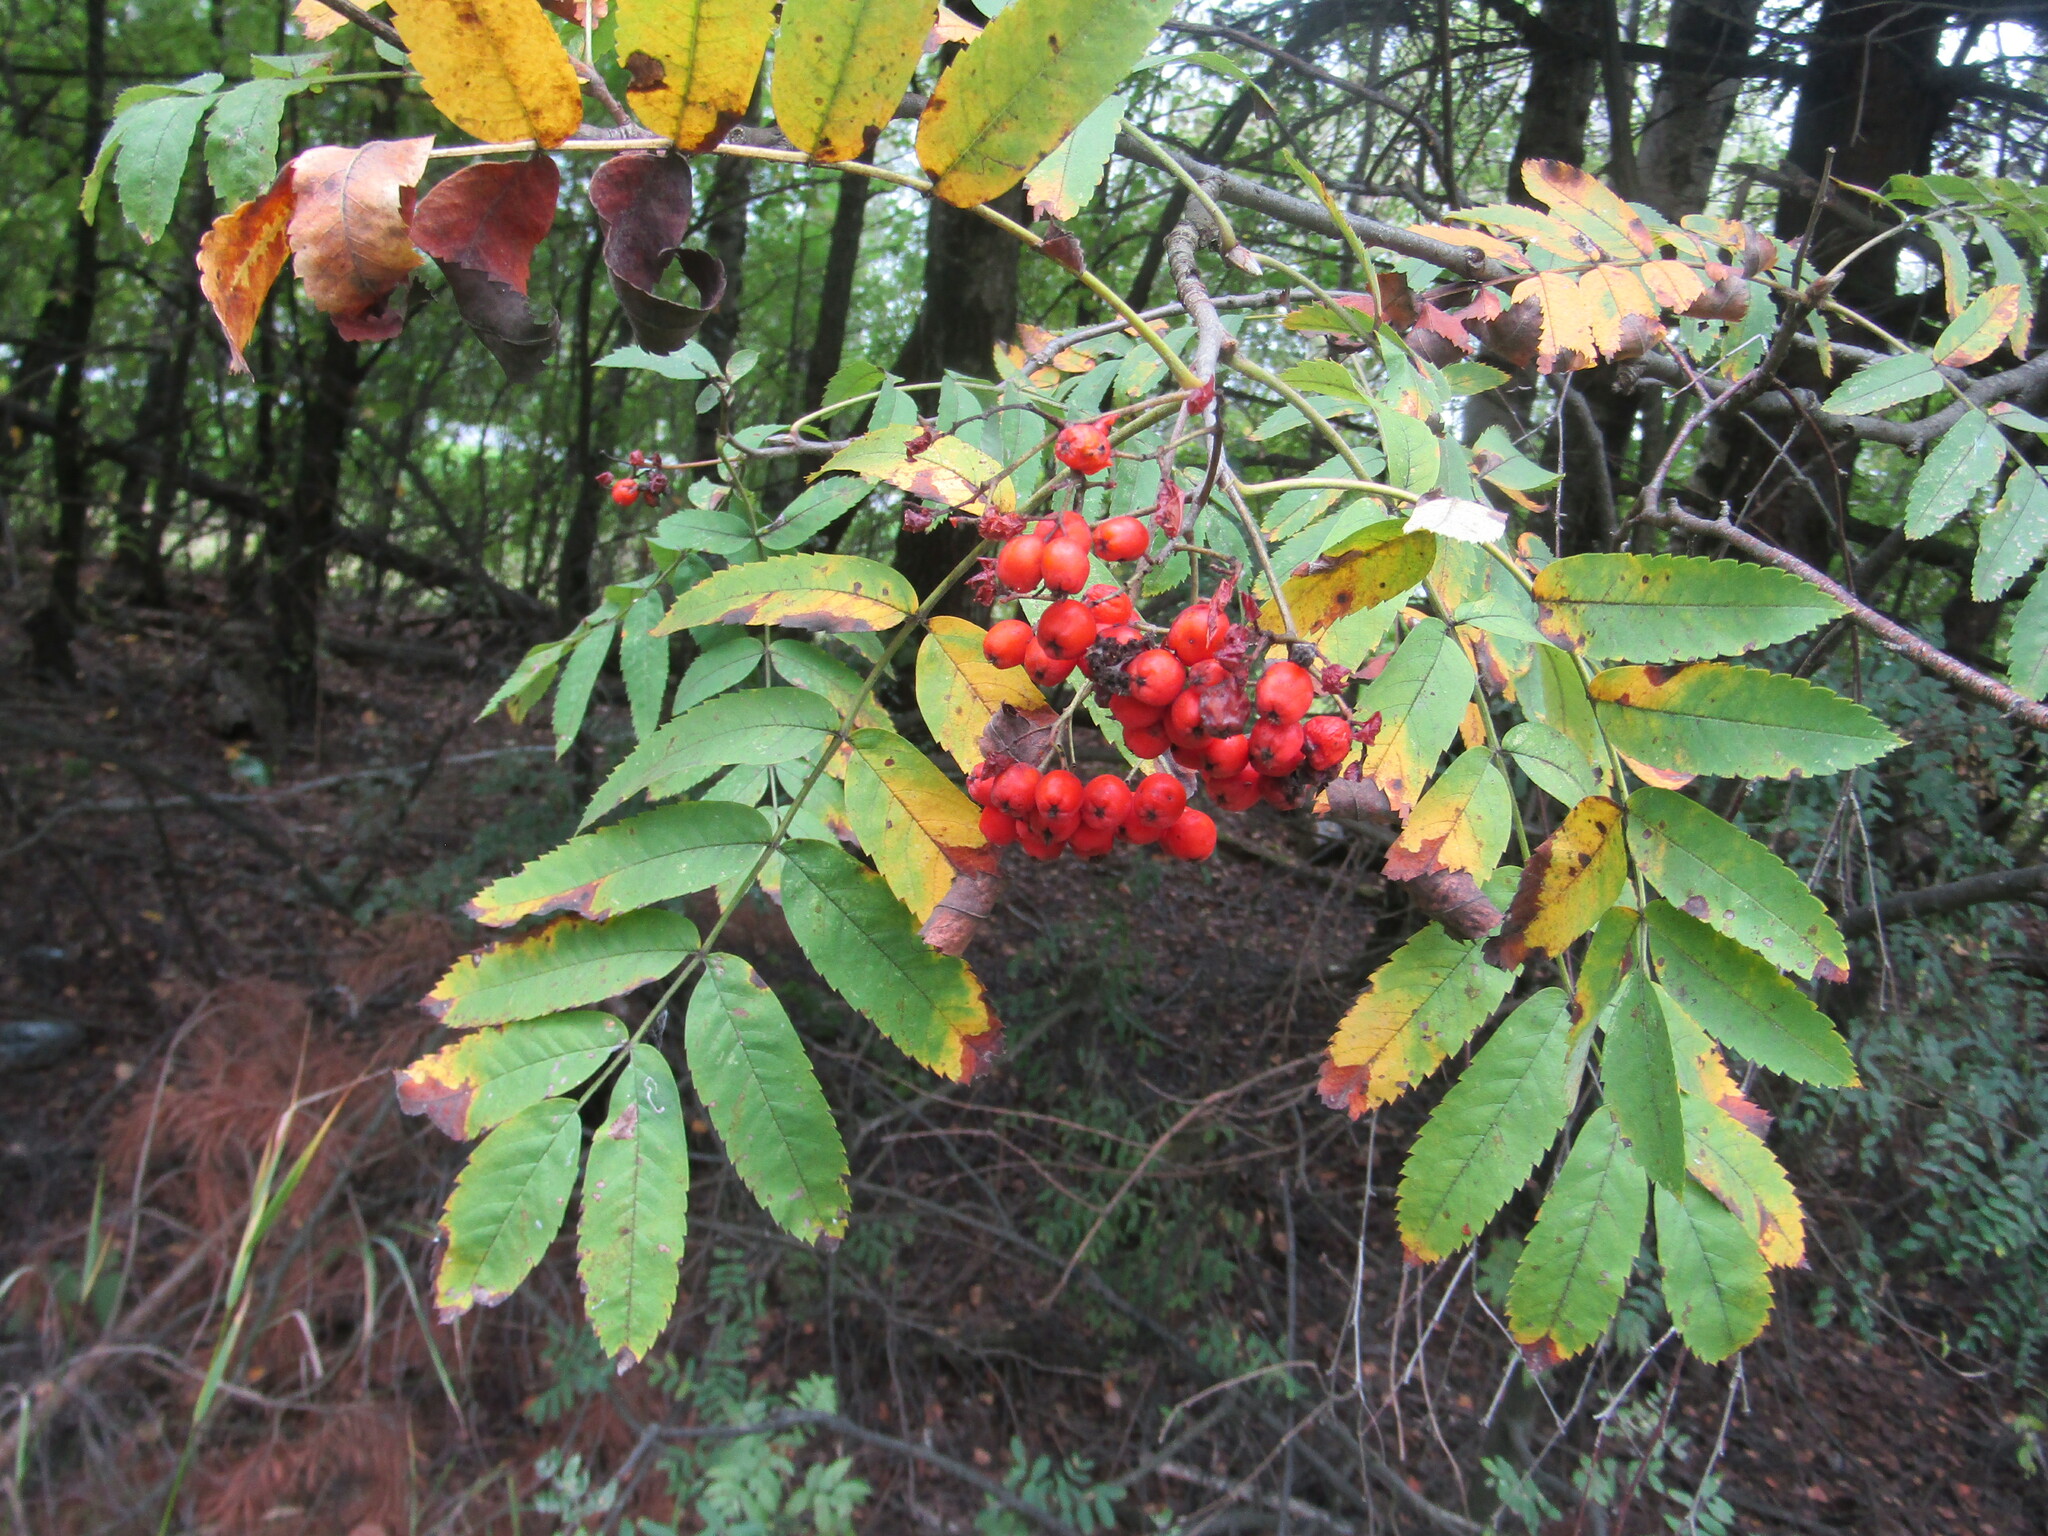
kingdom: Plantae
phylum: Tracheophyta
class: Magnoliopsida
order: Rosales
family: Rosaceae
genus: Sorbus
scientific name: Sorbus aucuparia
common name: Rowan
